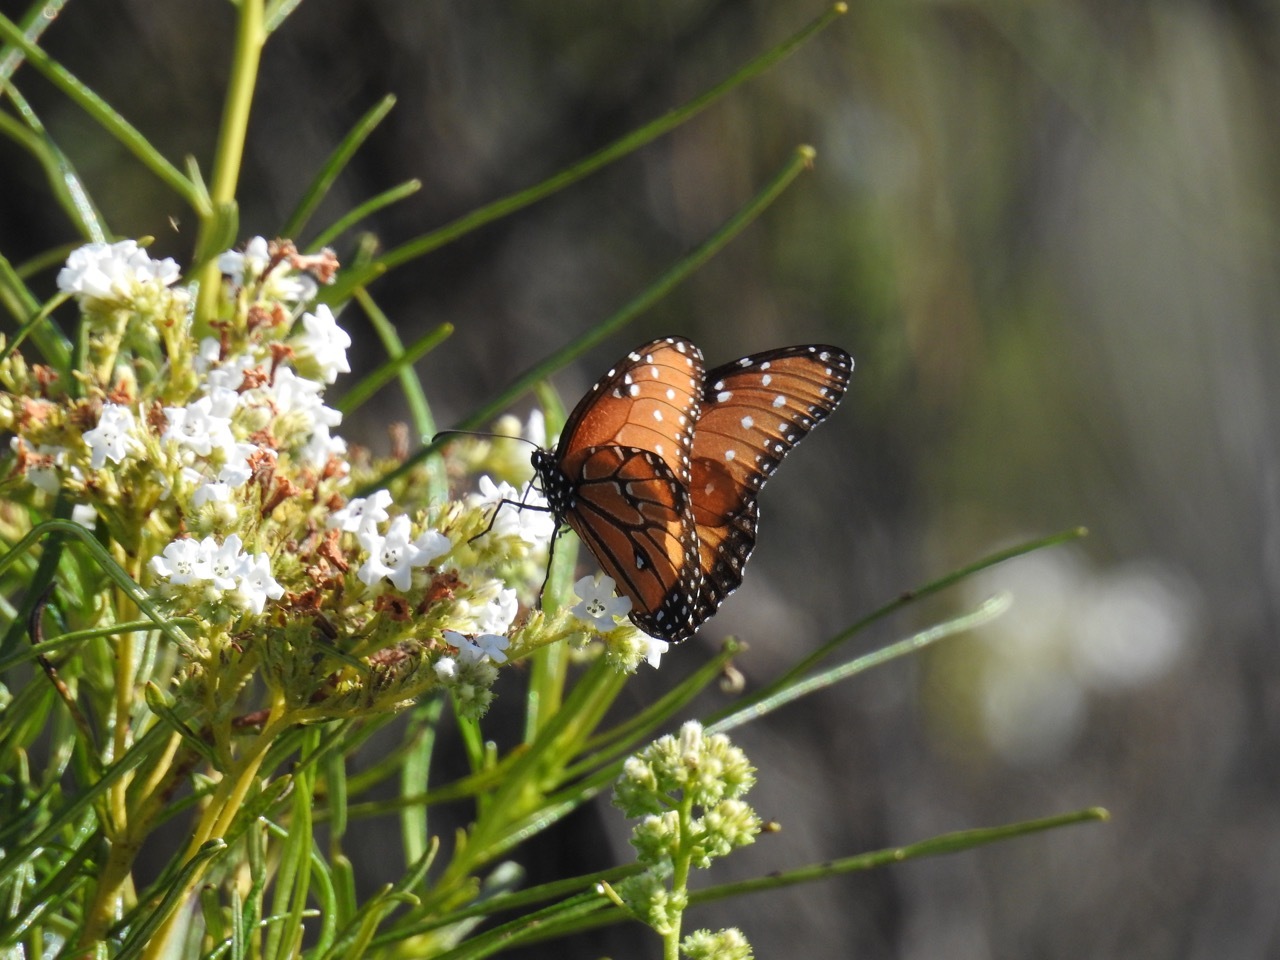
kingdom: Animalia
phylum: Arthropoda
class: Insecta
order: Lepidoptera
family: Nymphalidae
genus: Danaus
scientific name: Danaus gilippus
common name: Queen
